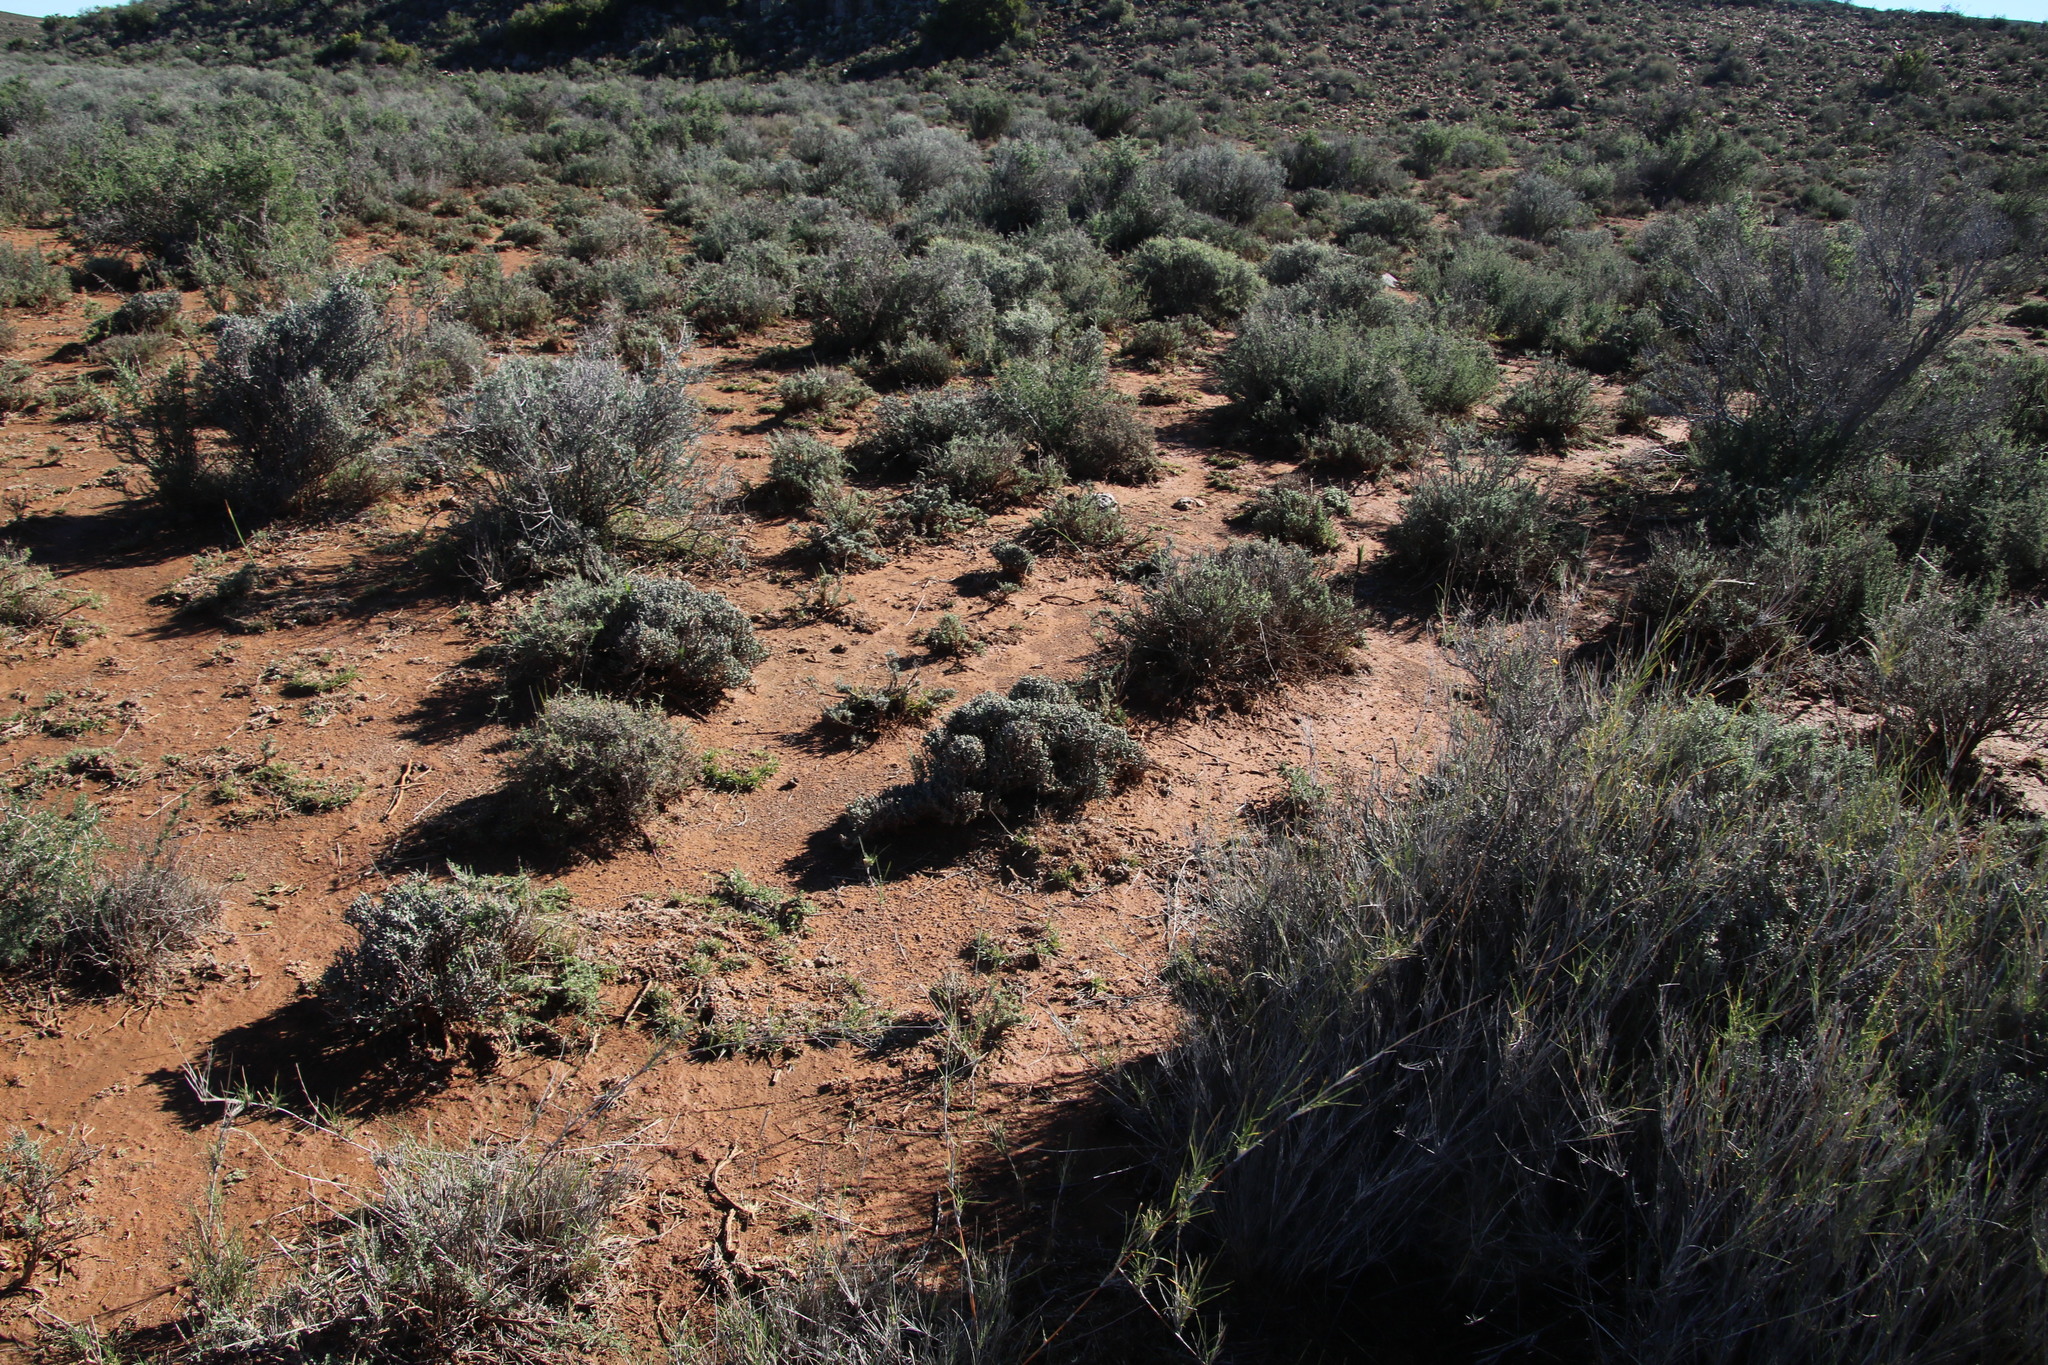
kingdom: Plantae
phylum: Tracheophyta
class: Magnoliopsida
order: Caryophyllales
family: Aizoaceae
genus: Ruschia
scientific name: Ruschia grisea
